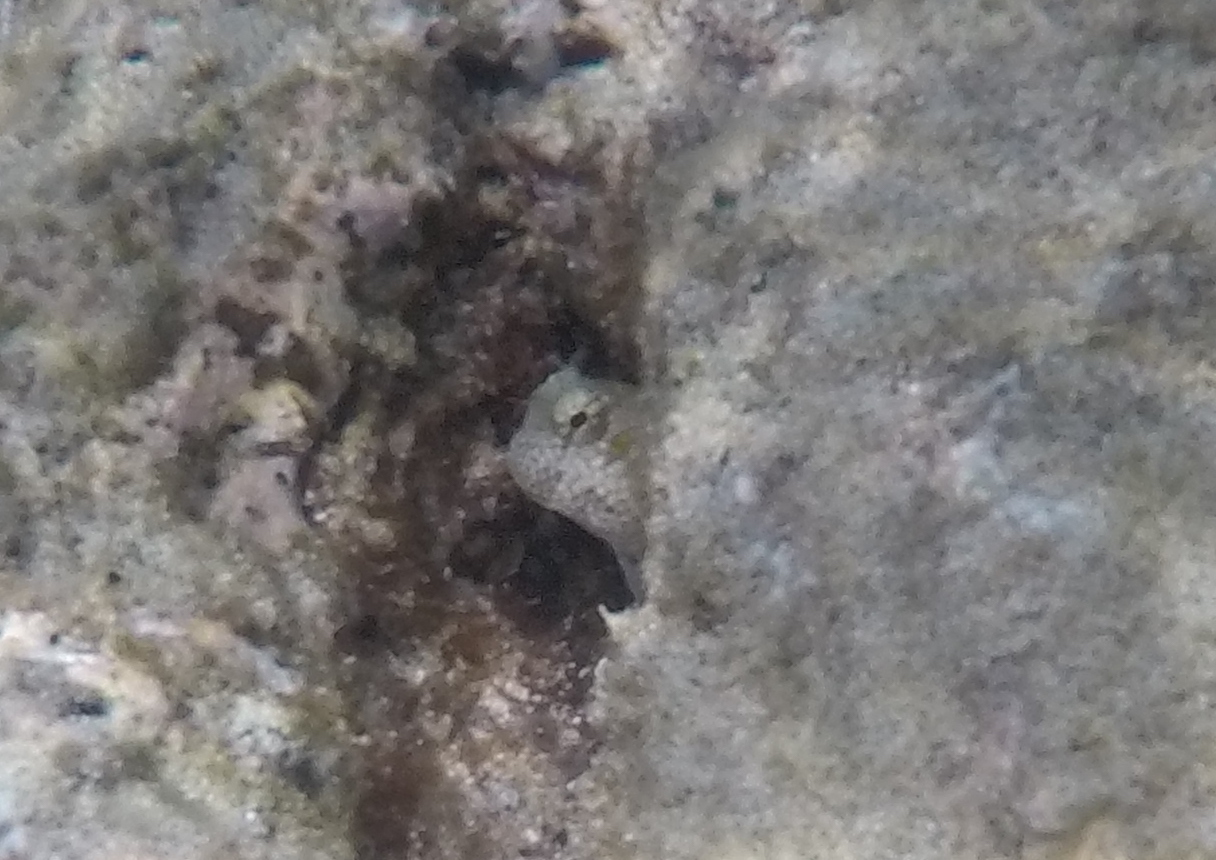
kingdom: Animalia
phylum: Chordata
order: Perciformes
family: Blenniidae
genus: Blenniella
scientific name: Blenniella gibbifrons
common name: Picture rockskipper
